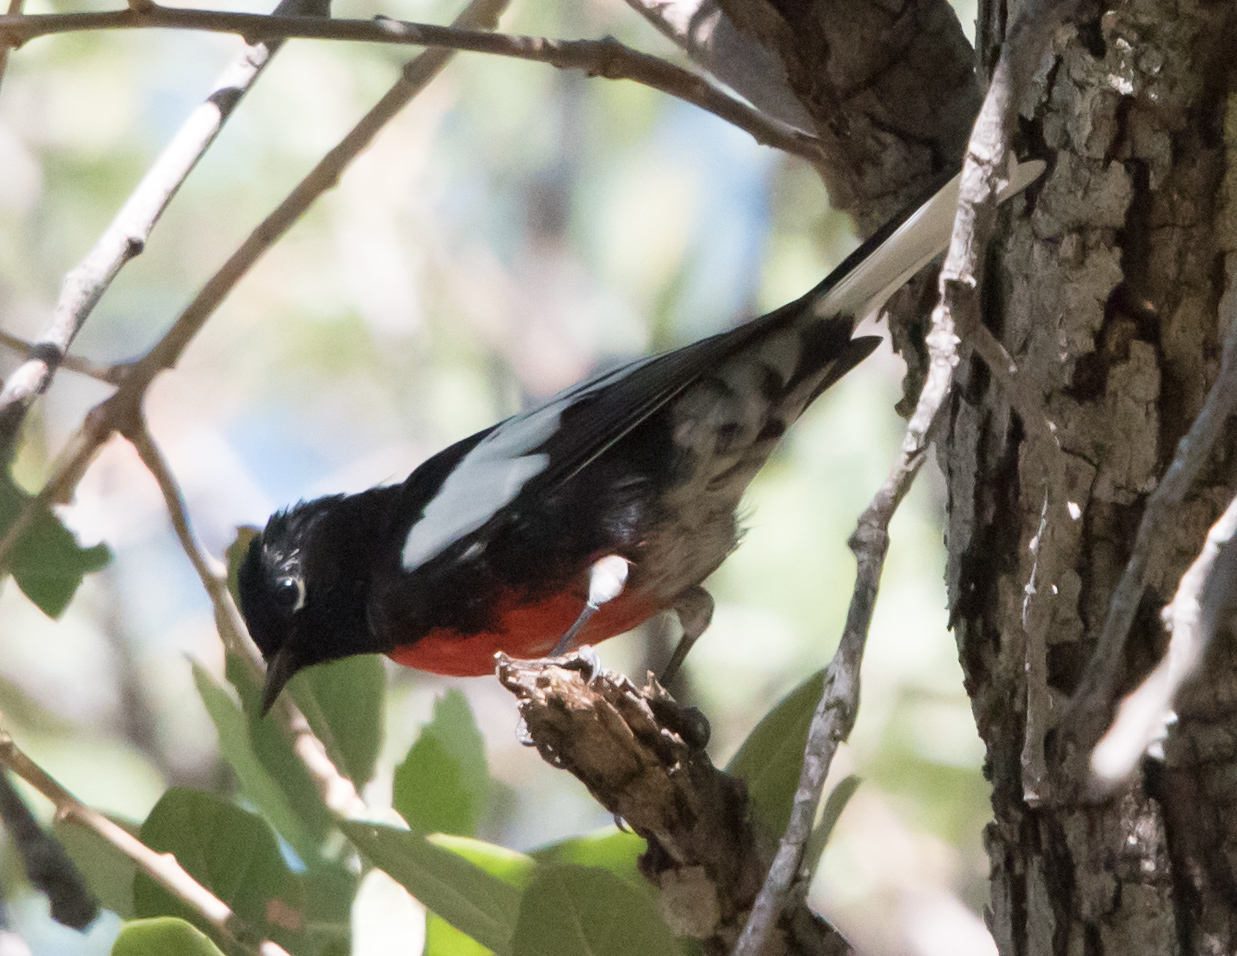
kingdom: Animalia
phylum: Chordata
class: Aves
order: Passeriformes
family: Parulidae
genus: Myioborus
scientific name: Myioborus pictus
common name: Painted whitestart
